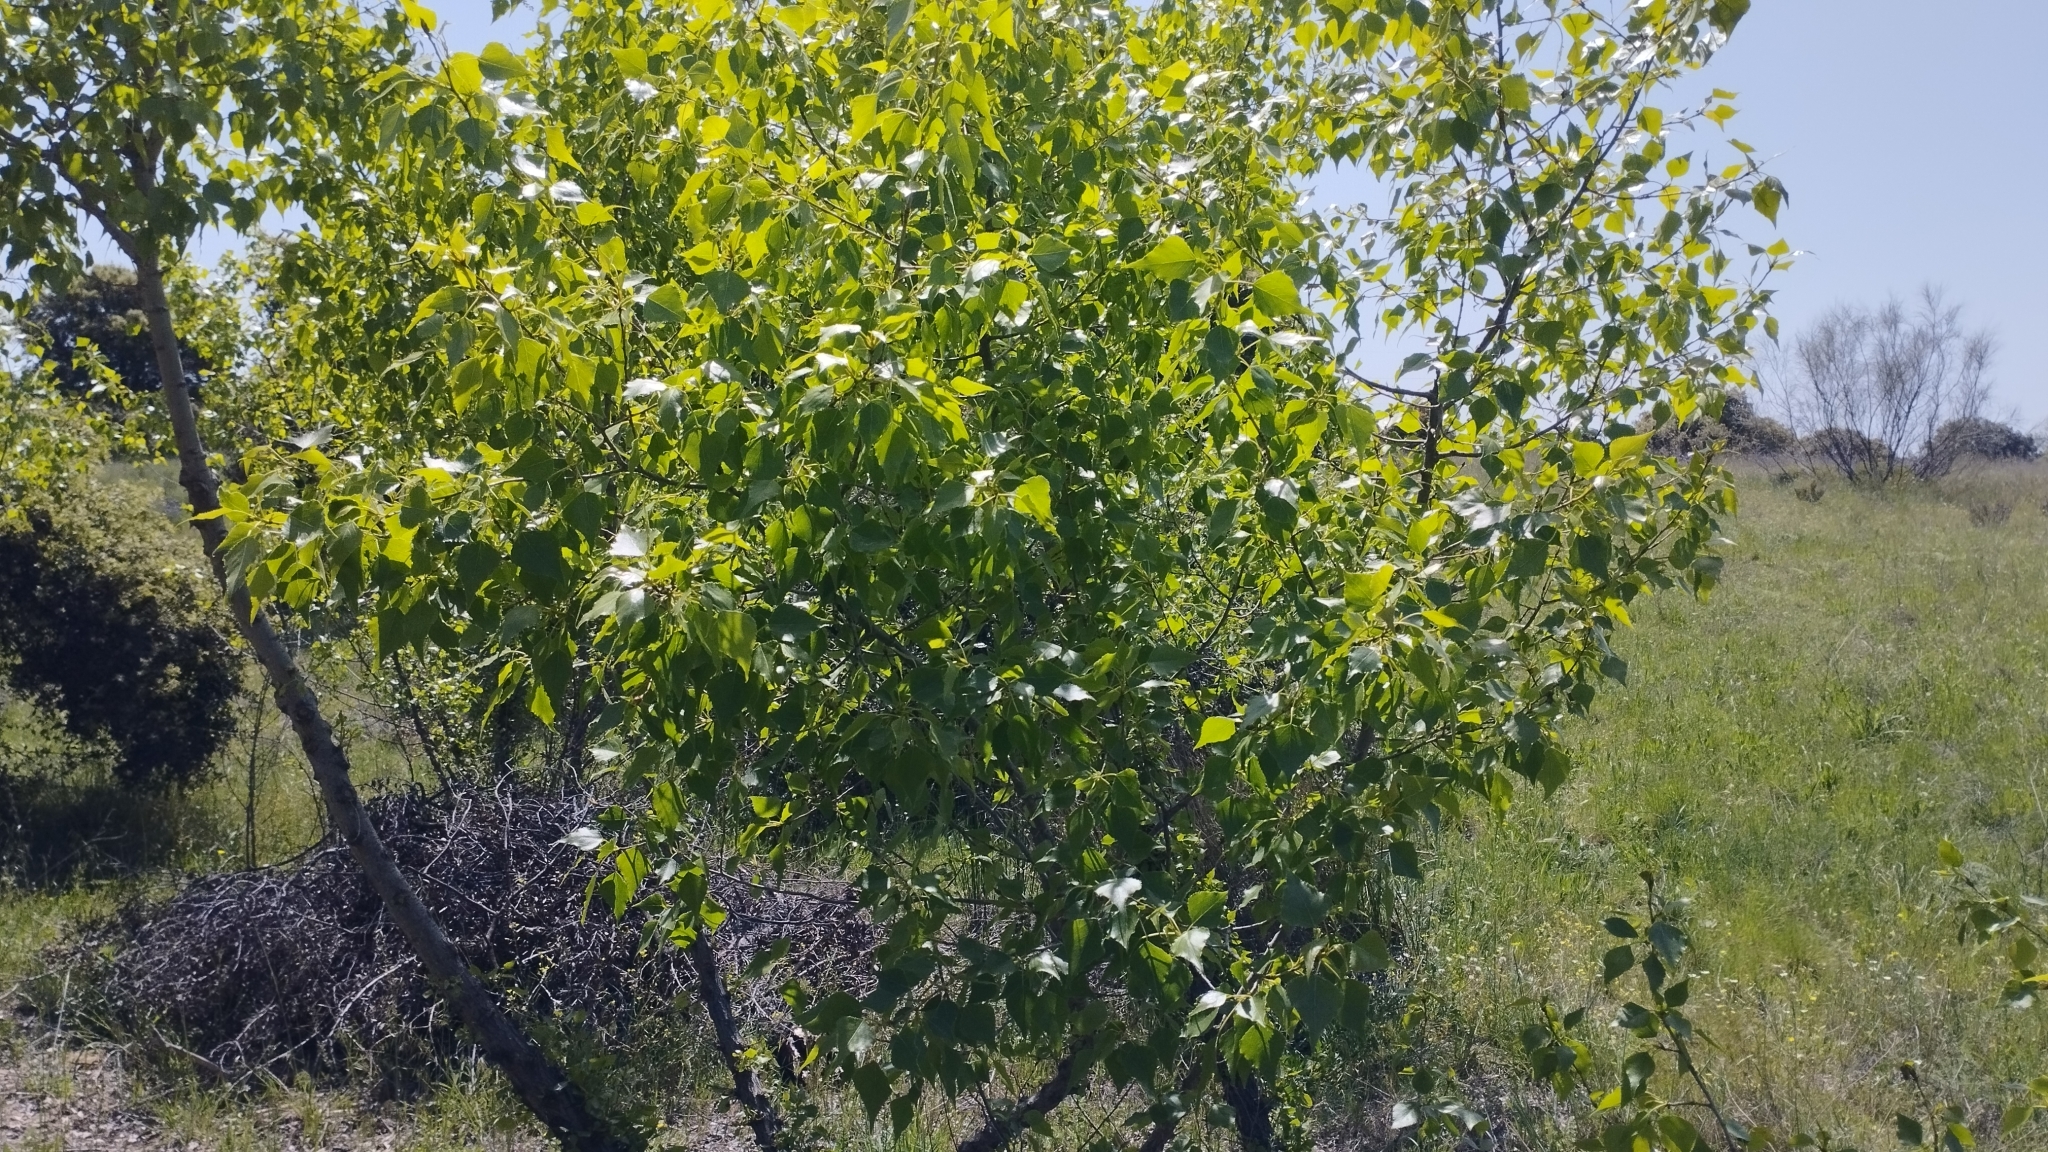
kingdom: Plantae
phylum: Tracheophyta
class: Magnoliopsida
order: Malpighiales
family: Salicaceae
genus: Populus
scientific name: Populus nigra
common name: Black poplar
